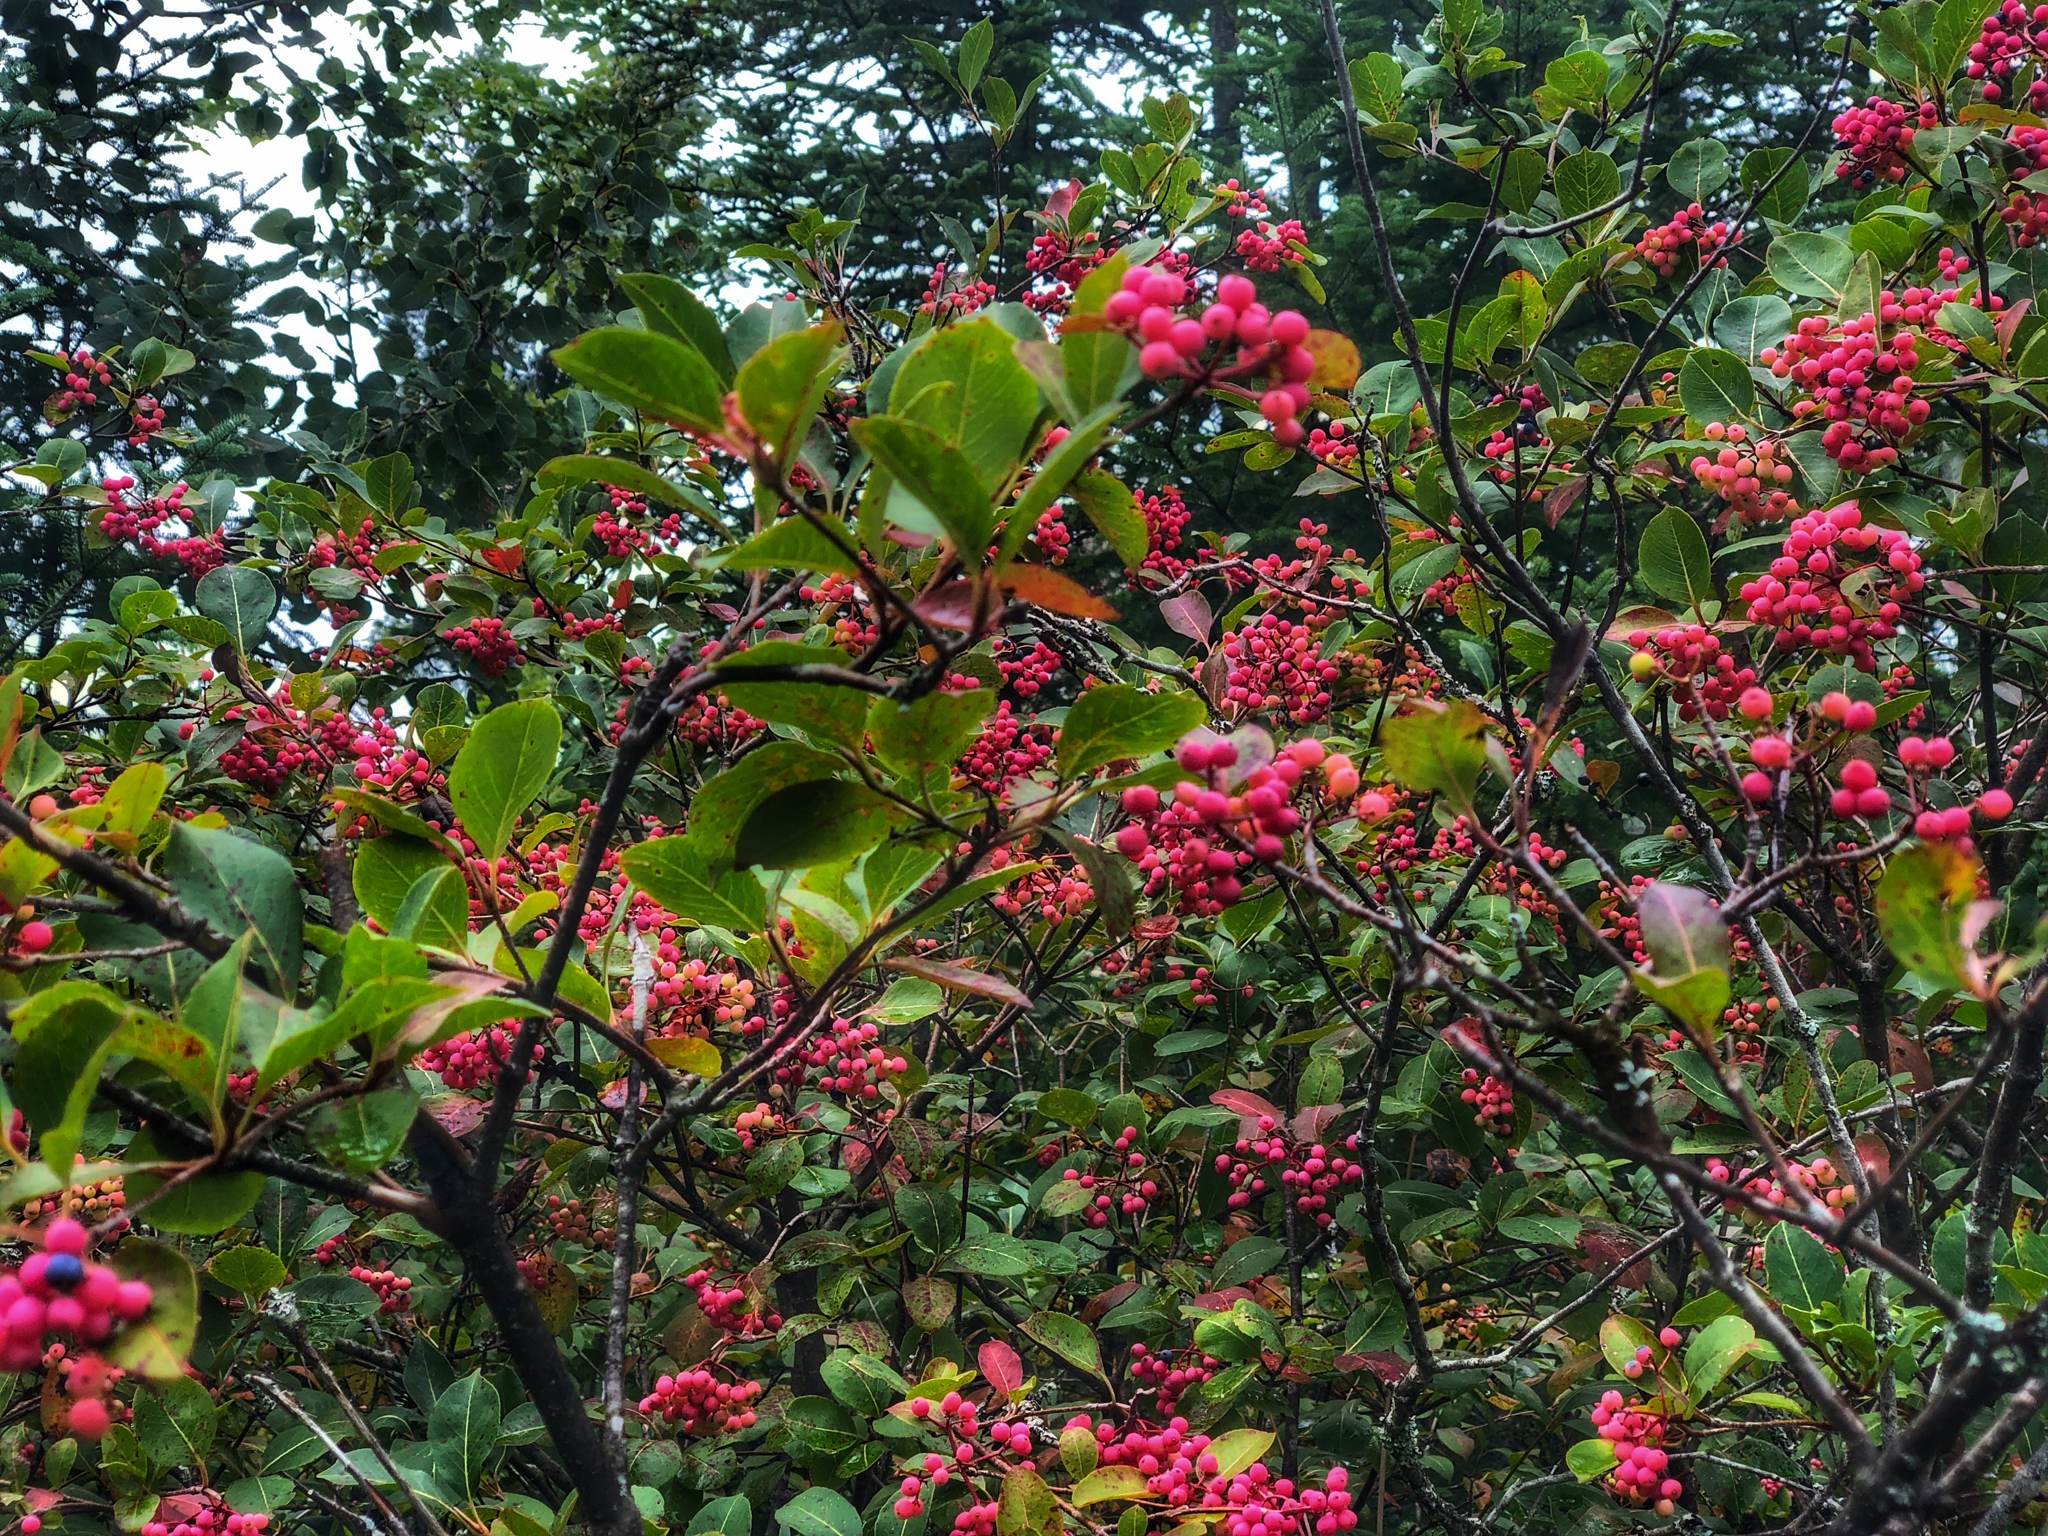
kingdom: Plantae
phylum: Tracheophyta
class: Magnoliopsida
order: Dipsacales
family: Viburnaceae
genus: Viburnum
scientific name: Viburnum cassinoides
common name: Swamp haw
